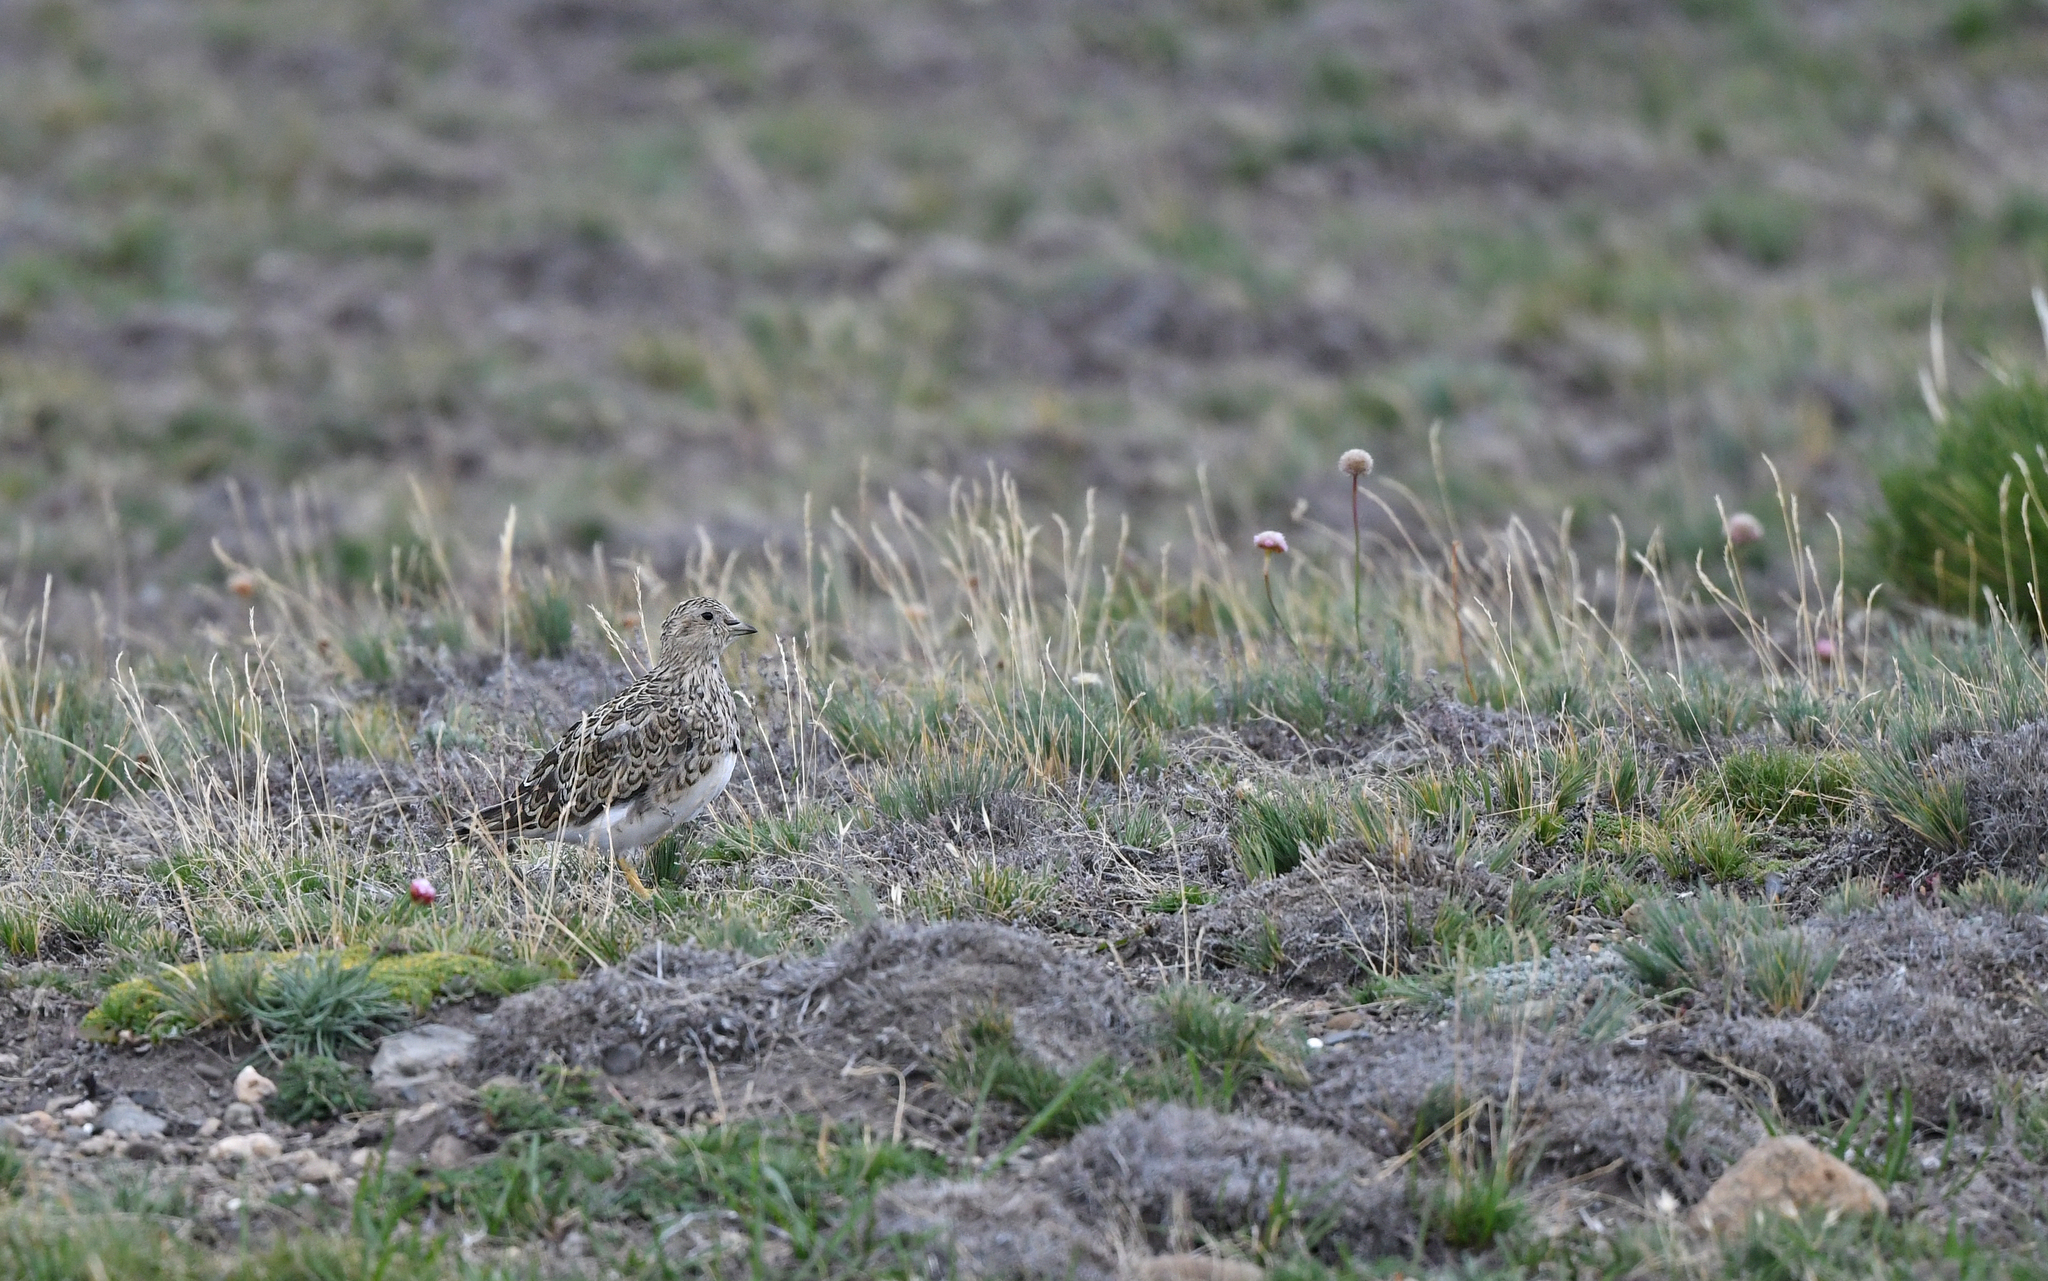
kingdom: Animalia
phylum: Chordata
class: Aves
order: Charadriiformes
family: Thinocoridae
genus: Thinocorus
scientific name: Thinocorus rumicivorus
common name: Least seedsnipe
